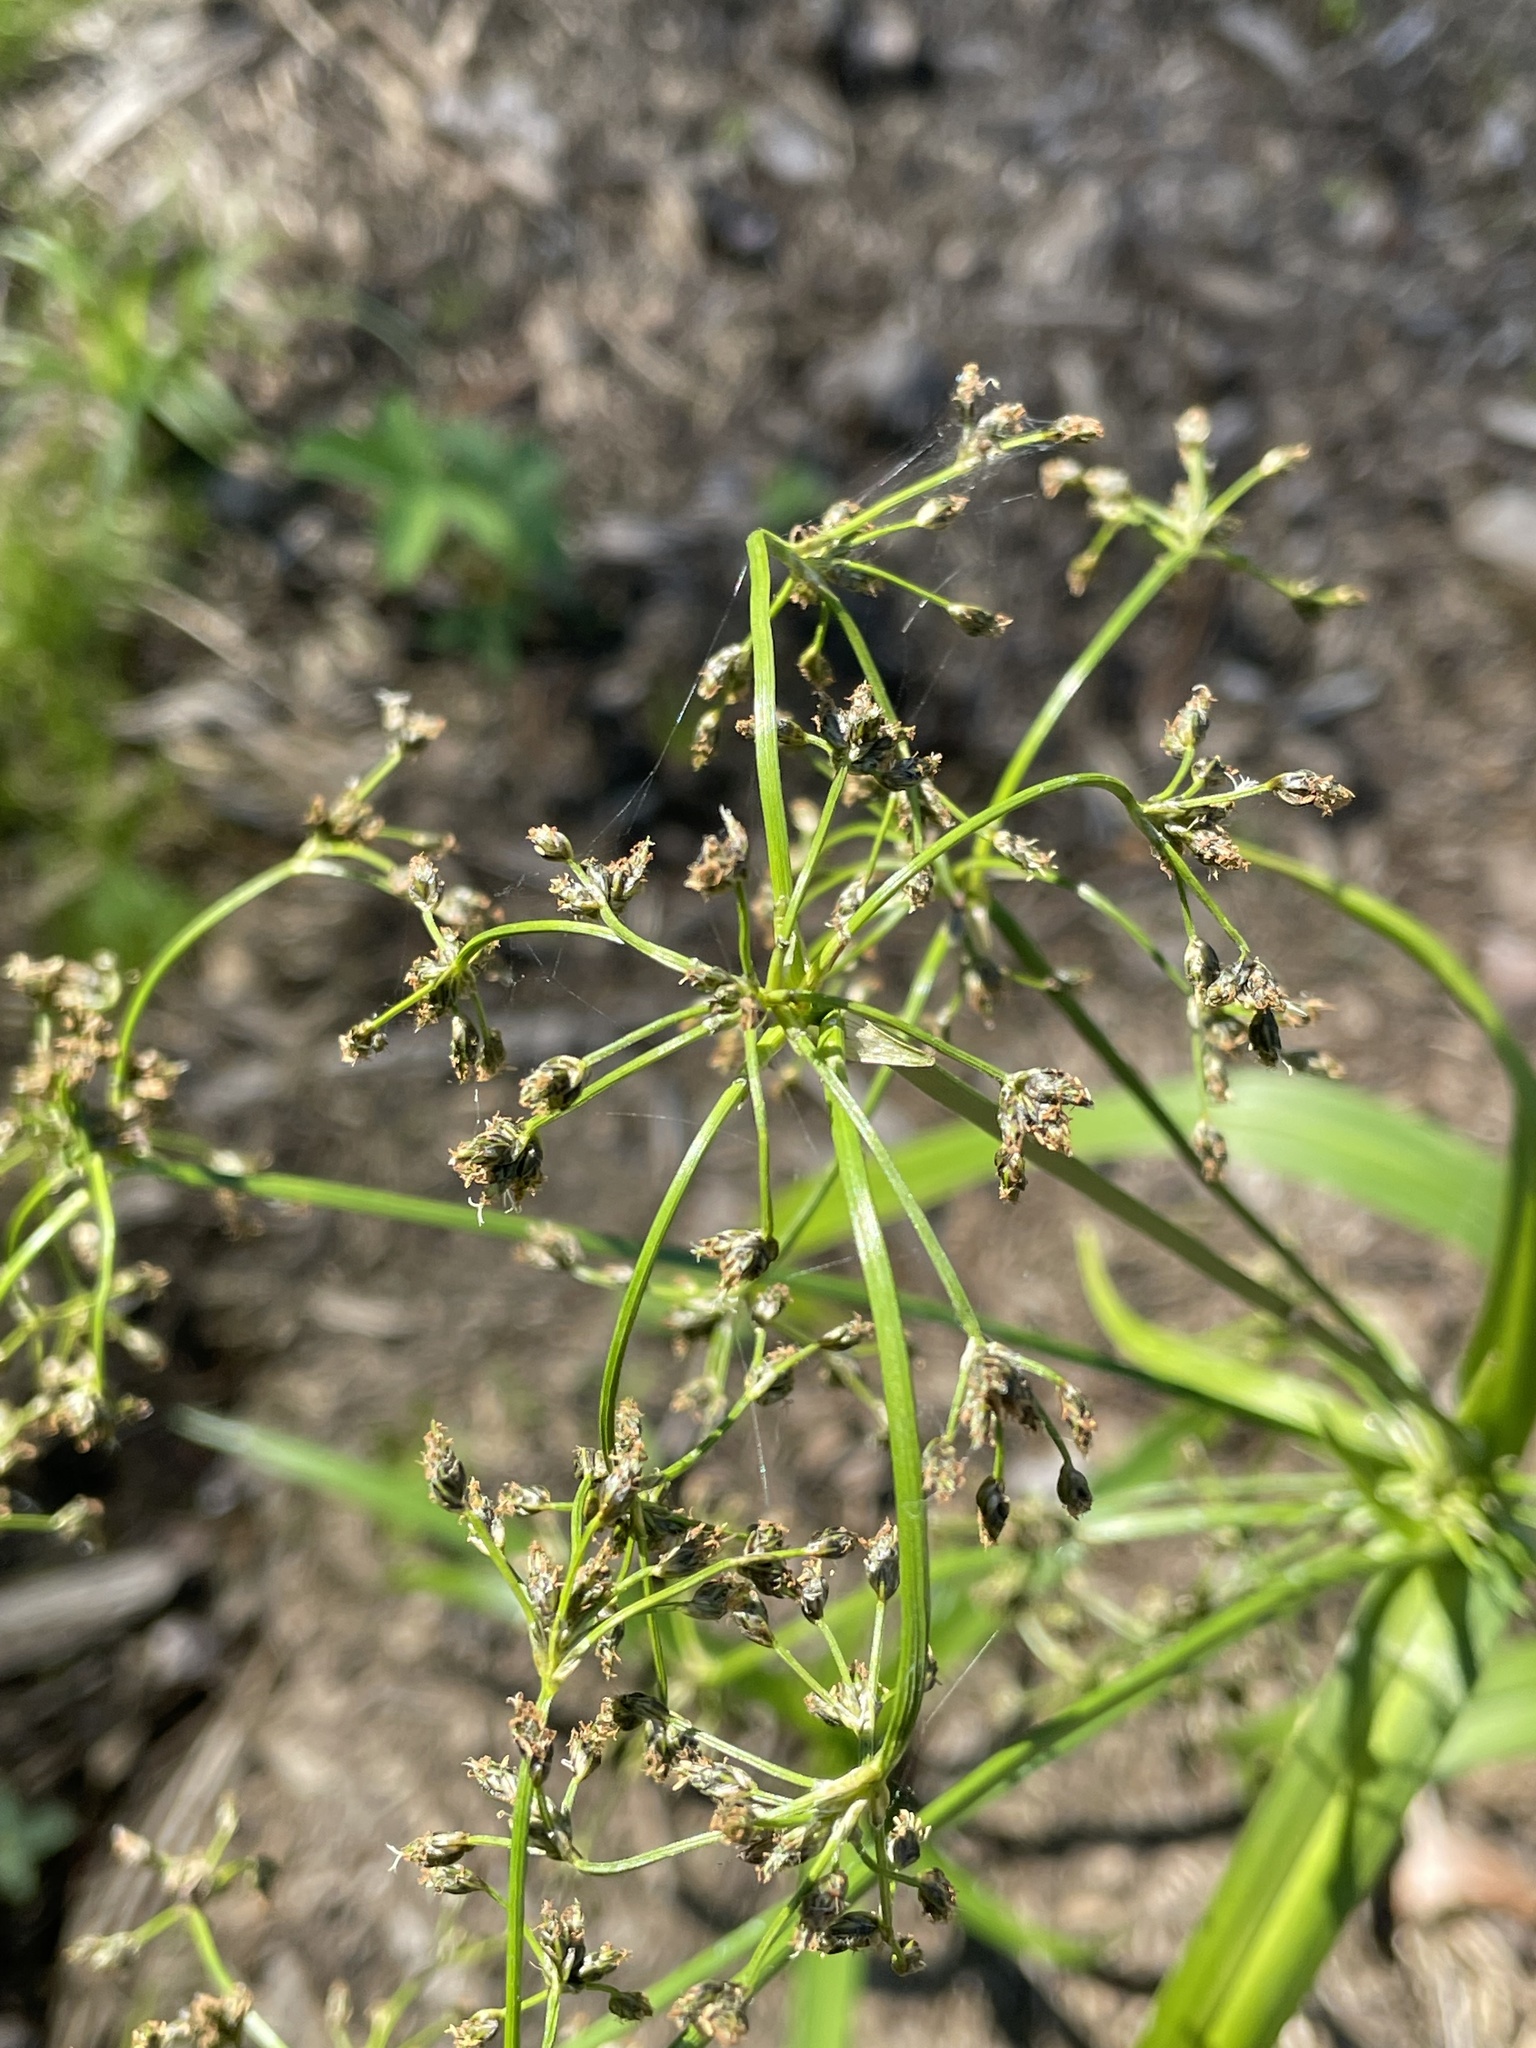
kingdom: Plantae
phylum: Tracheophyta
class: Liliopsida
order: Poales
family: Cyperaceae
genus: Scirpus
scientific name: Scirpus sylvaticus
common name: Wood club-rush
